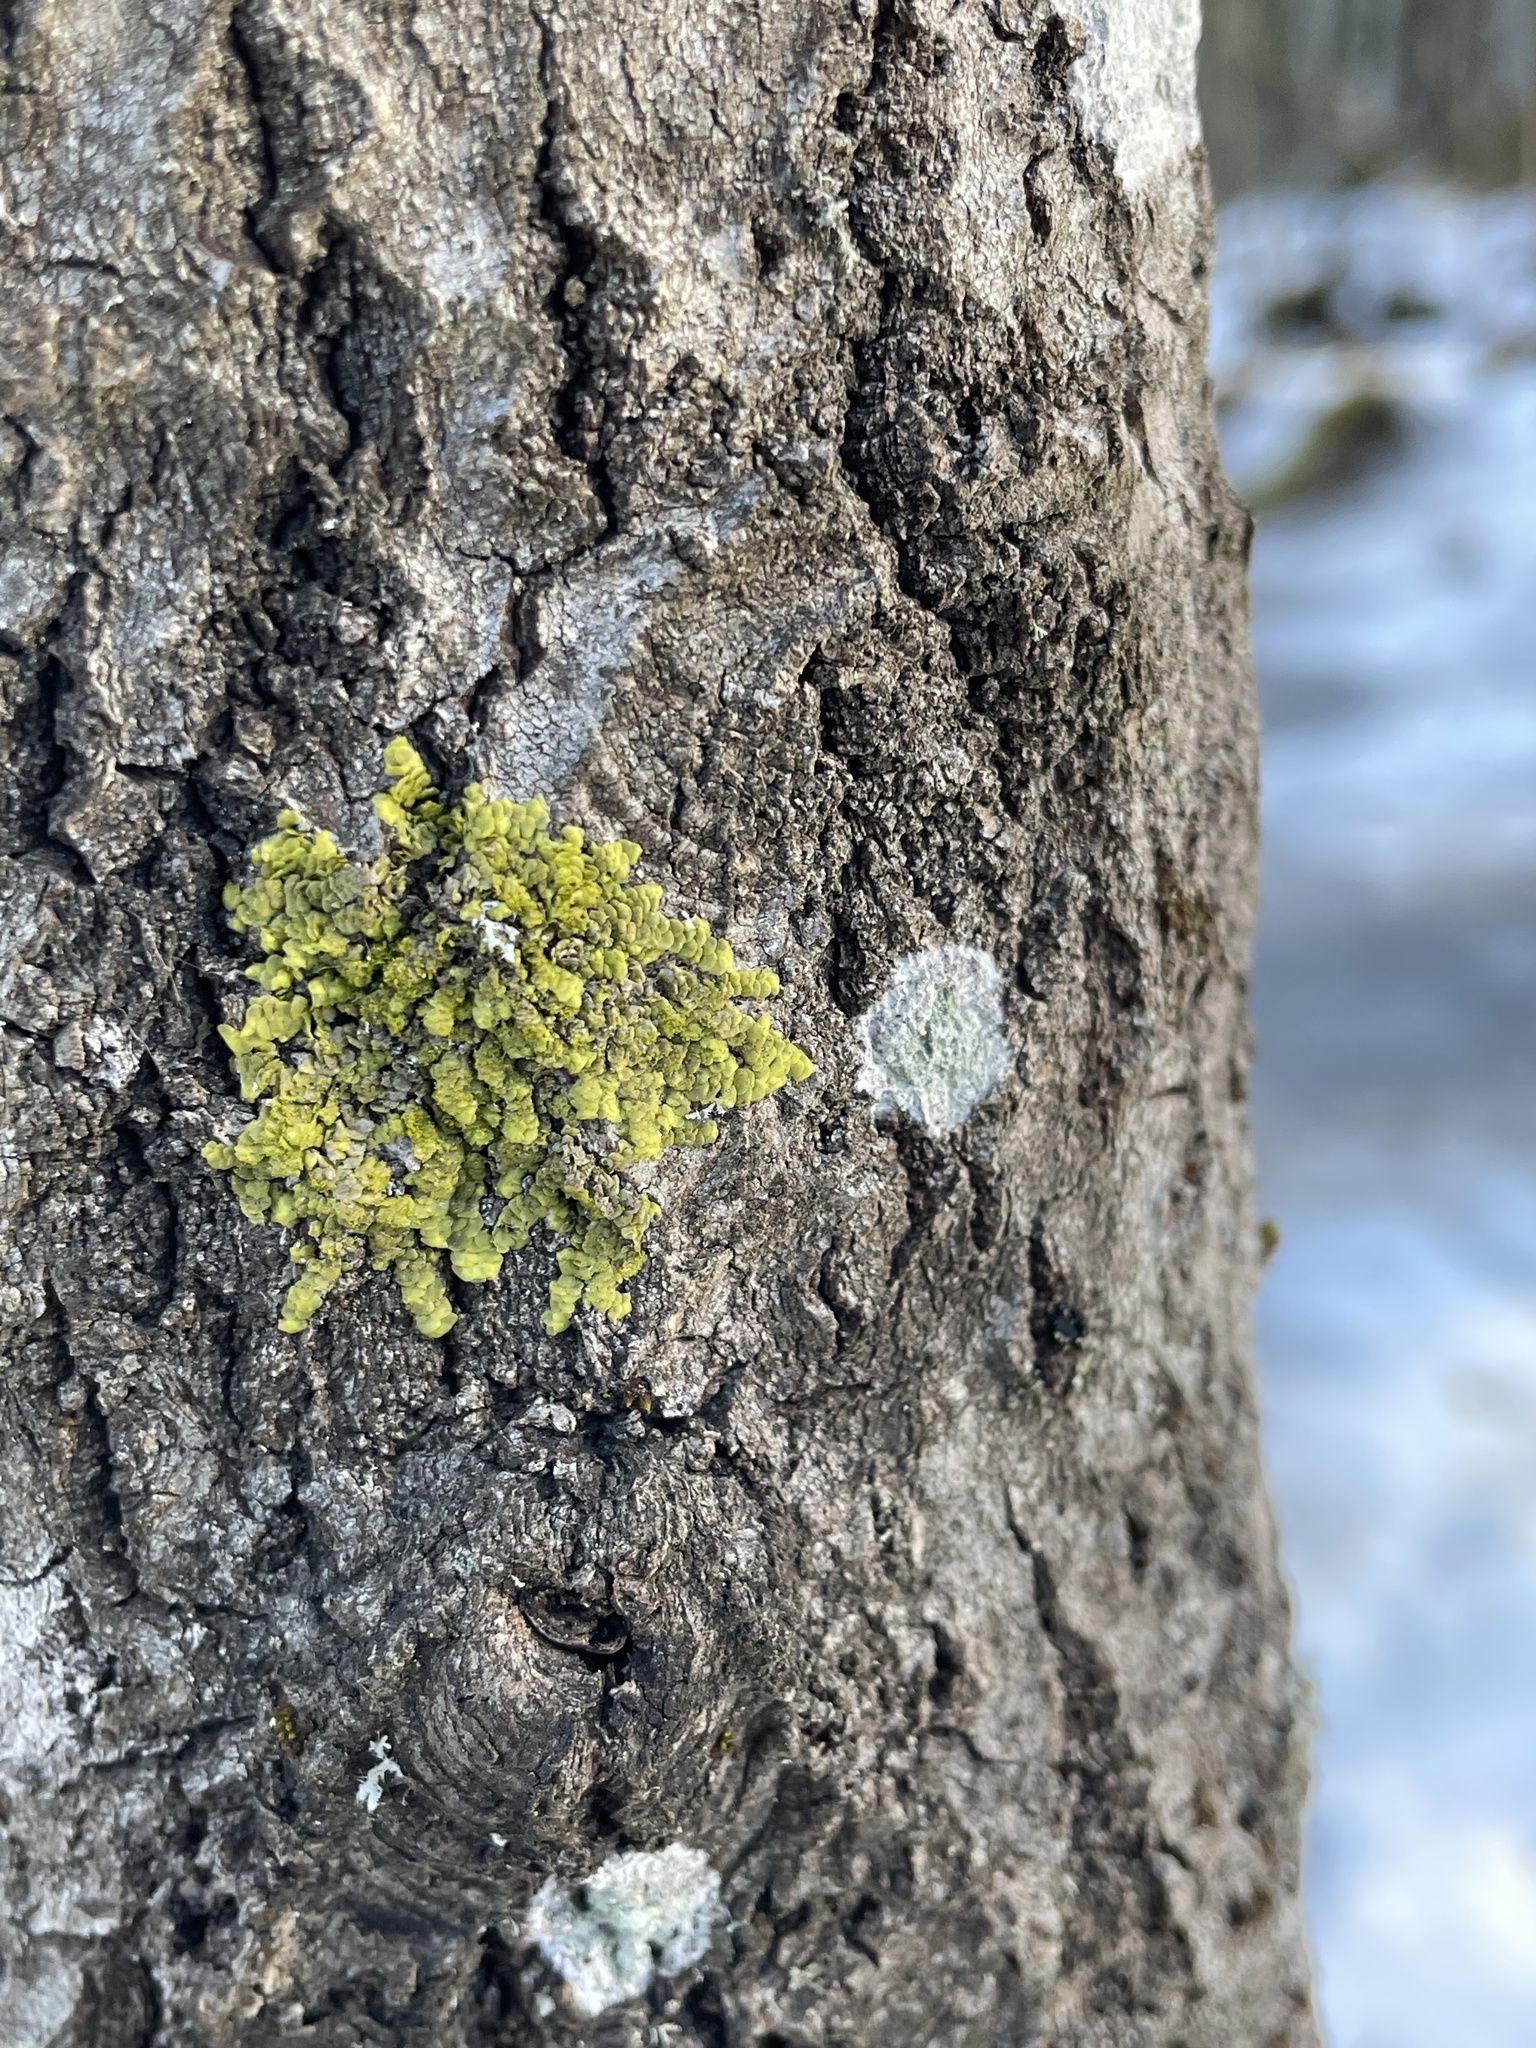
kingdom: Plantae
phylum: Marchantiophyta
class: Jungermanniopsida
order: Porellales
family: Radulaceae
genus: Radula
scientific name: Radula complanata
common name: Flat-leaved scalewort
